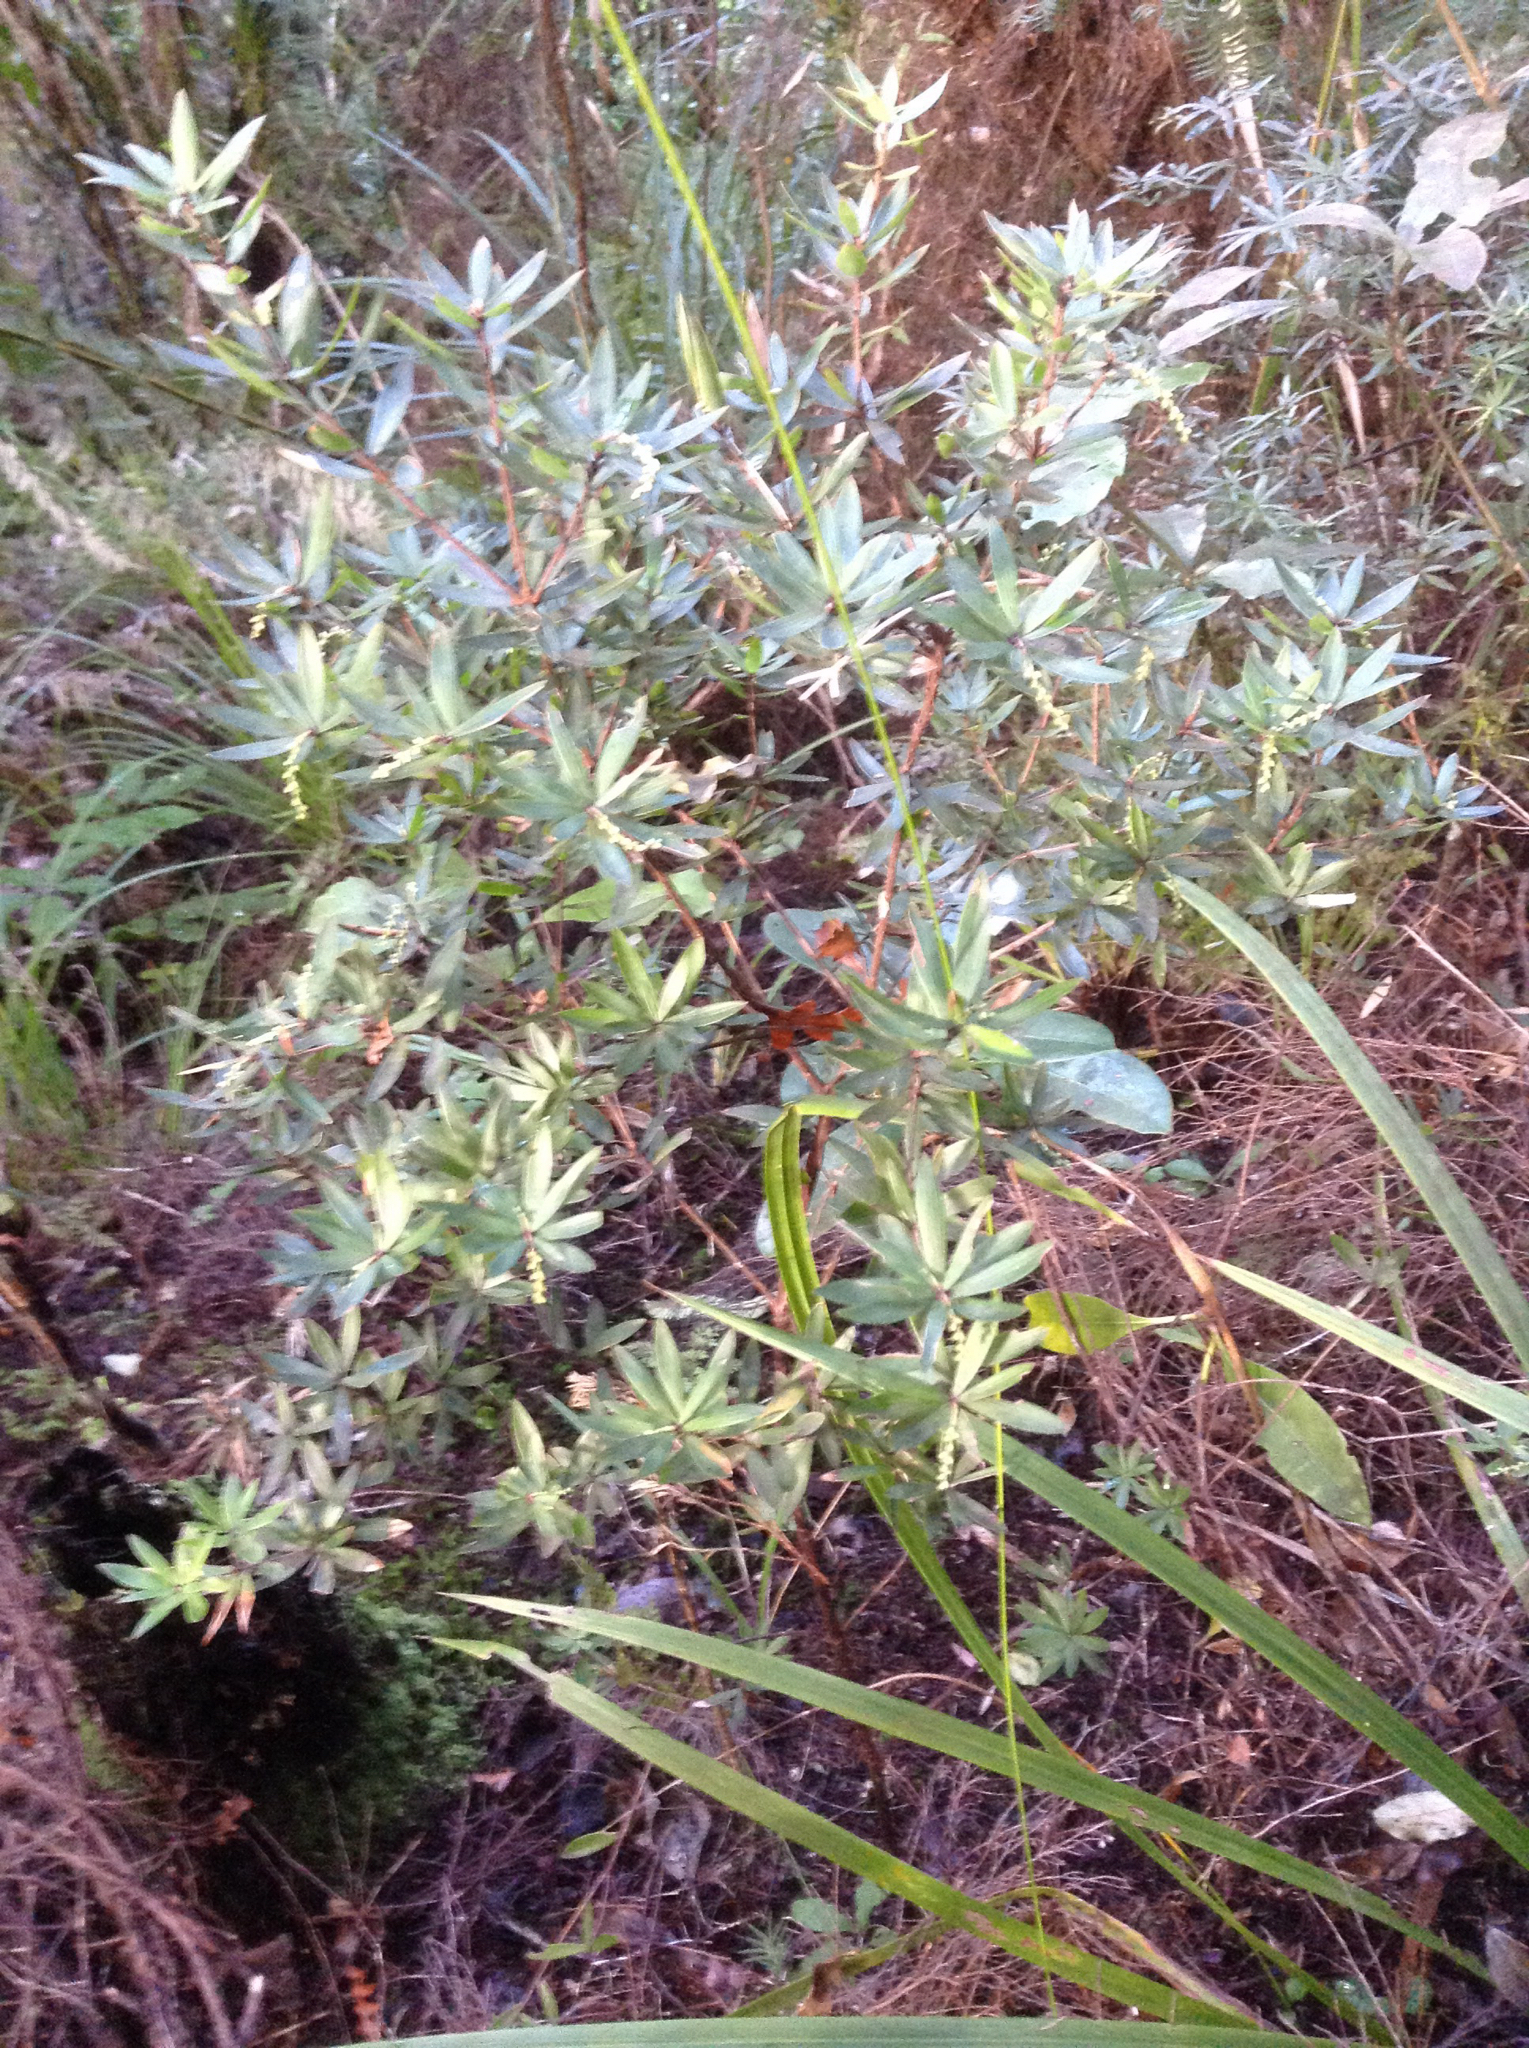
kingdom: Plantae
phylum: Tracheophyta
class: Magnoliopsida
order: Ericales
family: Ericaceae
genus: Leucopogon
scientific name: Leucopogon fasciculatus
